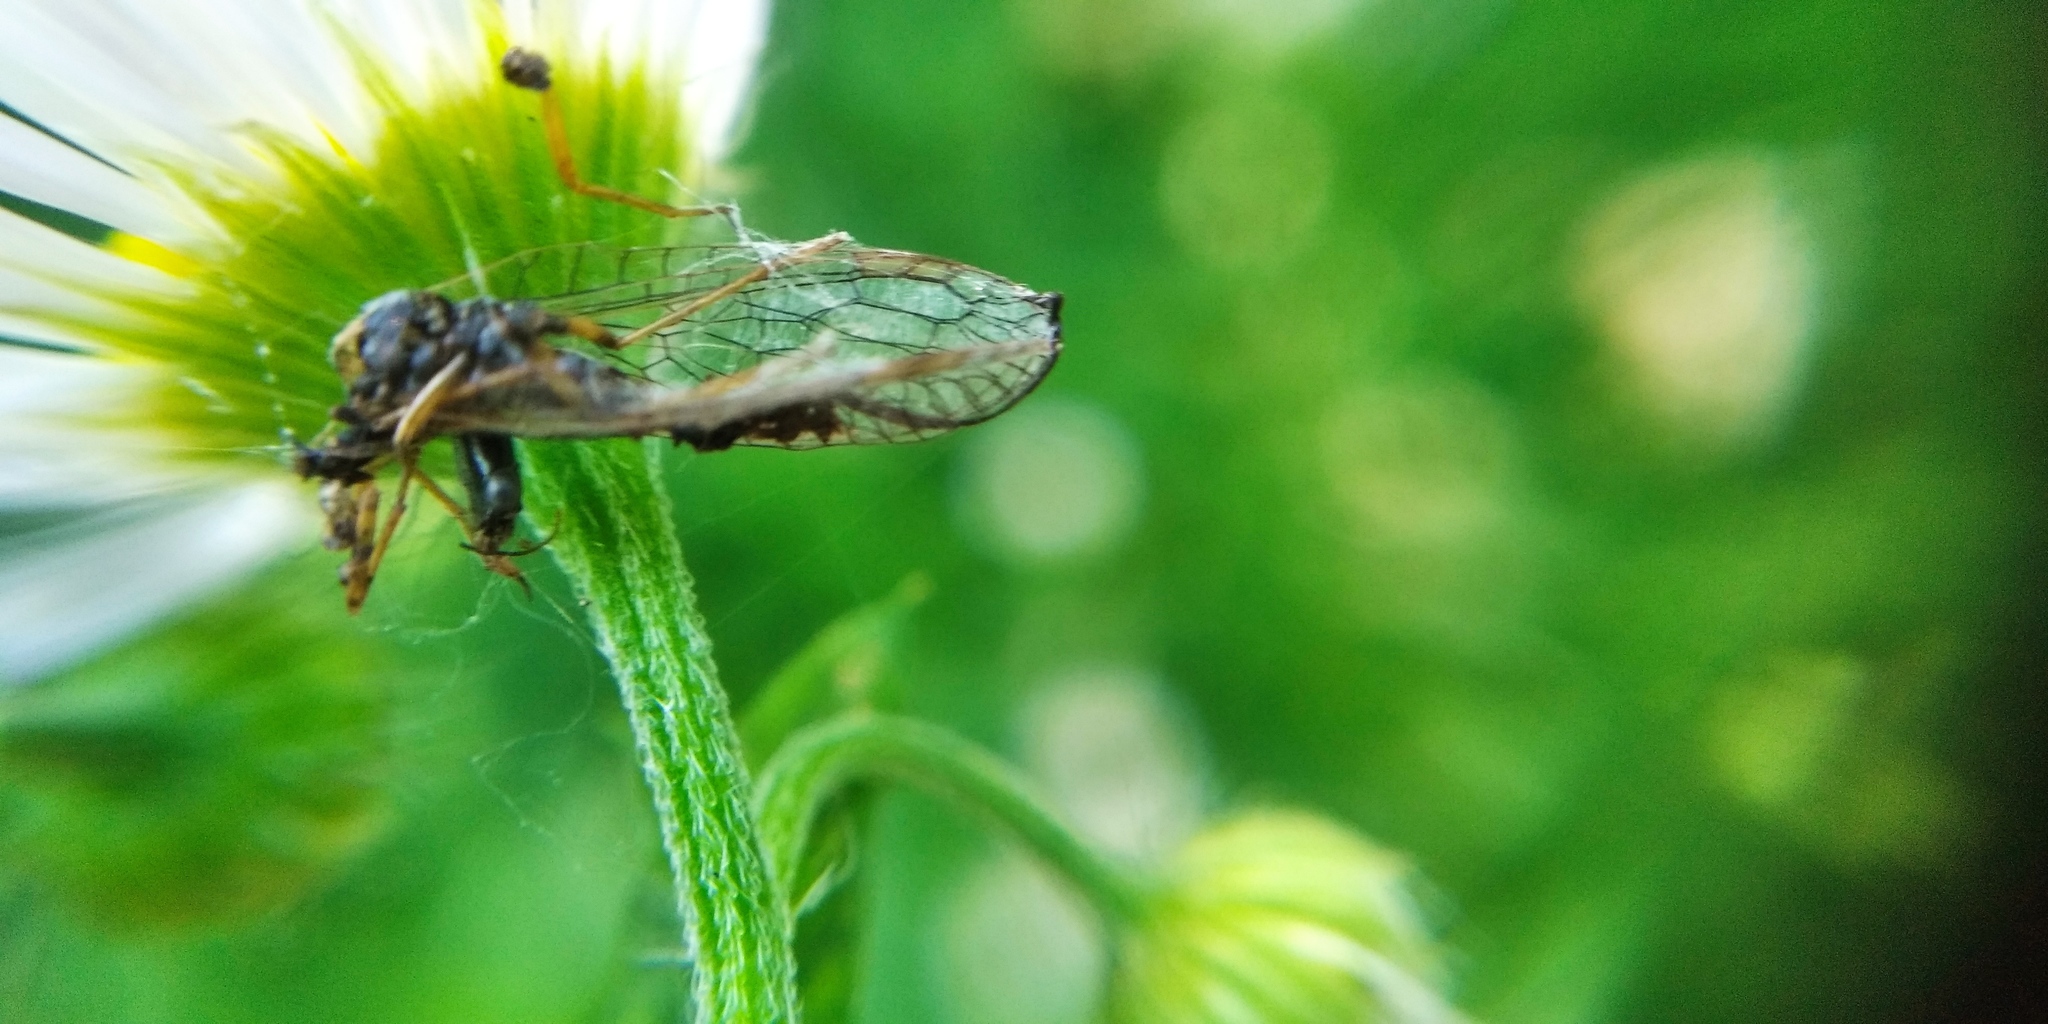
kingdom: Animalia
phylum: Arthropoda
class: Insecta
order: Raphidioptera
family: Raphidiidae
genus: Xanthostigma
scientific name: Xanthostigma xanthostigma
